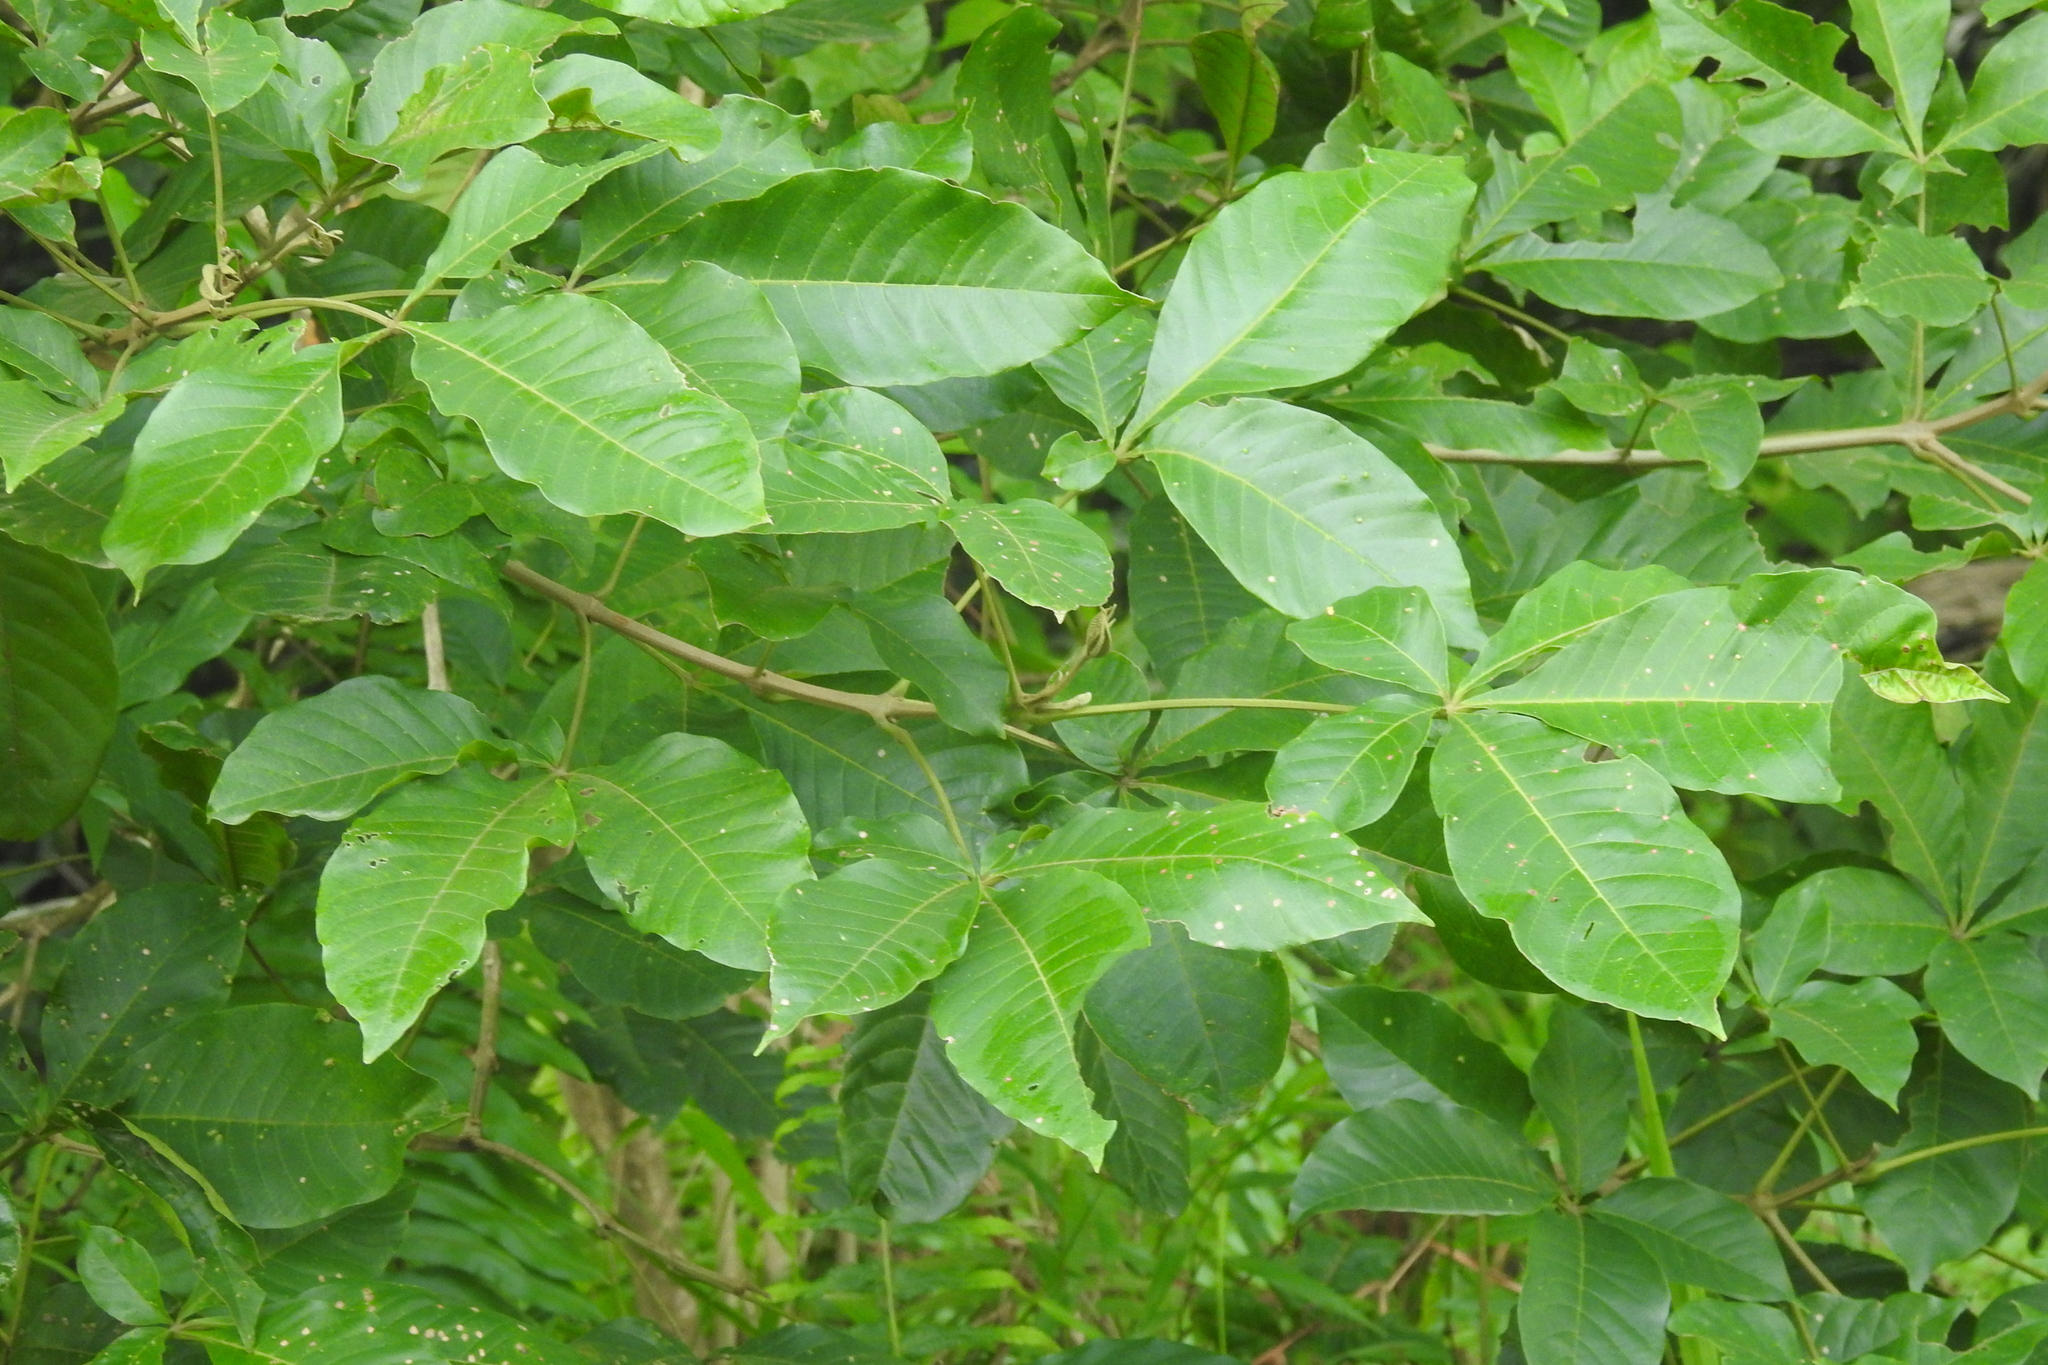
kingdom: Plantae
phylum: Tracheophyta
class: Magnoliopsida
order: Lamiales
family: Lamiaceae
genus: Vitex
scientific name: Vitex pinnata
